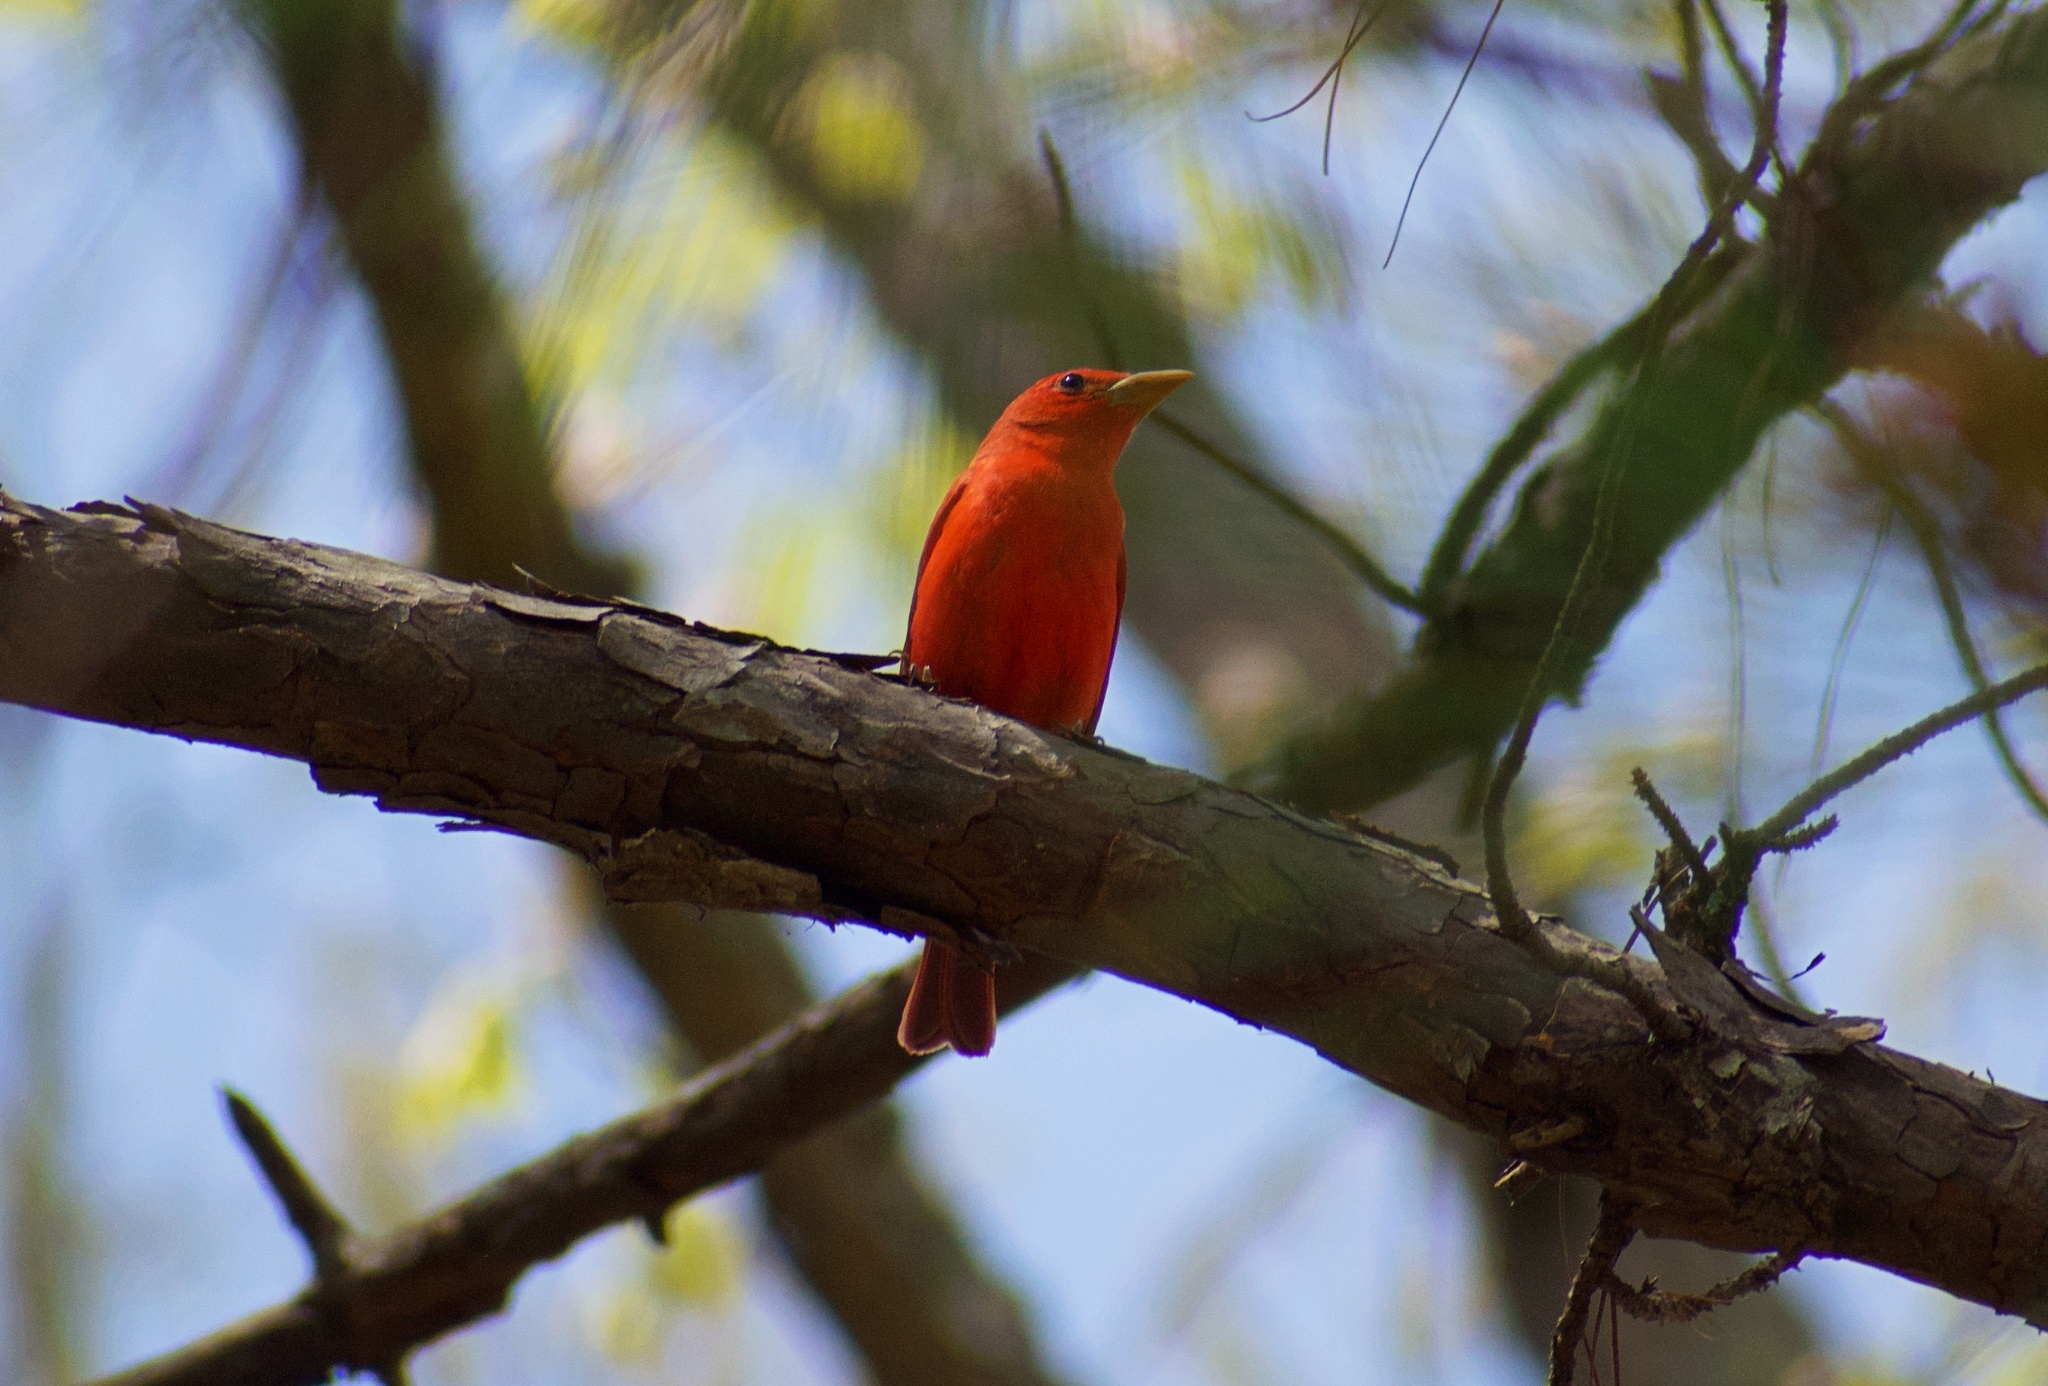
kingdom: Animalia
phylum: Chordata
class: Aves
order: Passeriformes
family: Cardinalidae
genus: Piranga
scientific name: Piranga rubra
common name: Summer tanager
